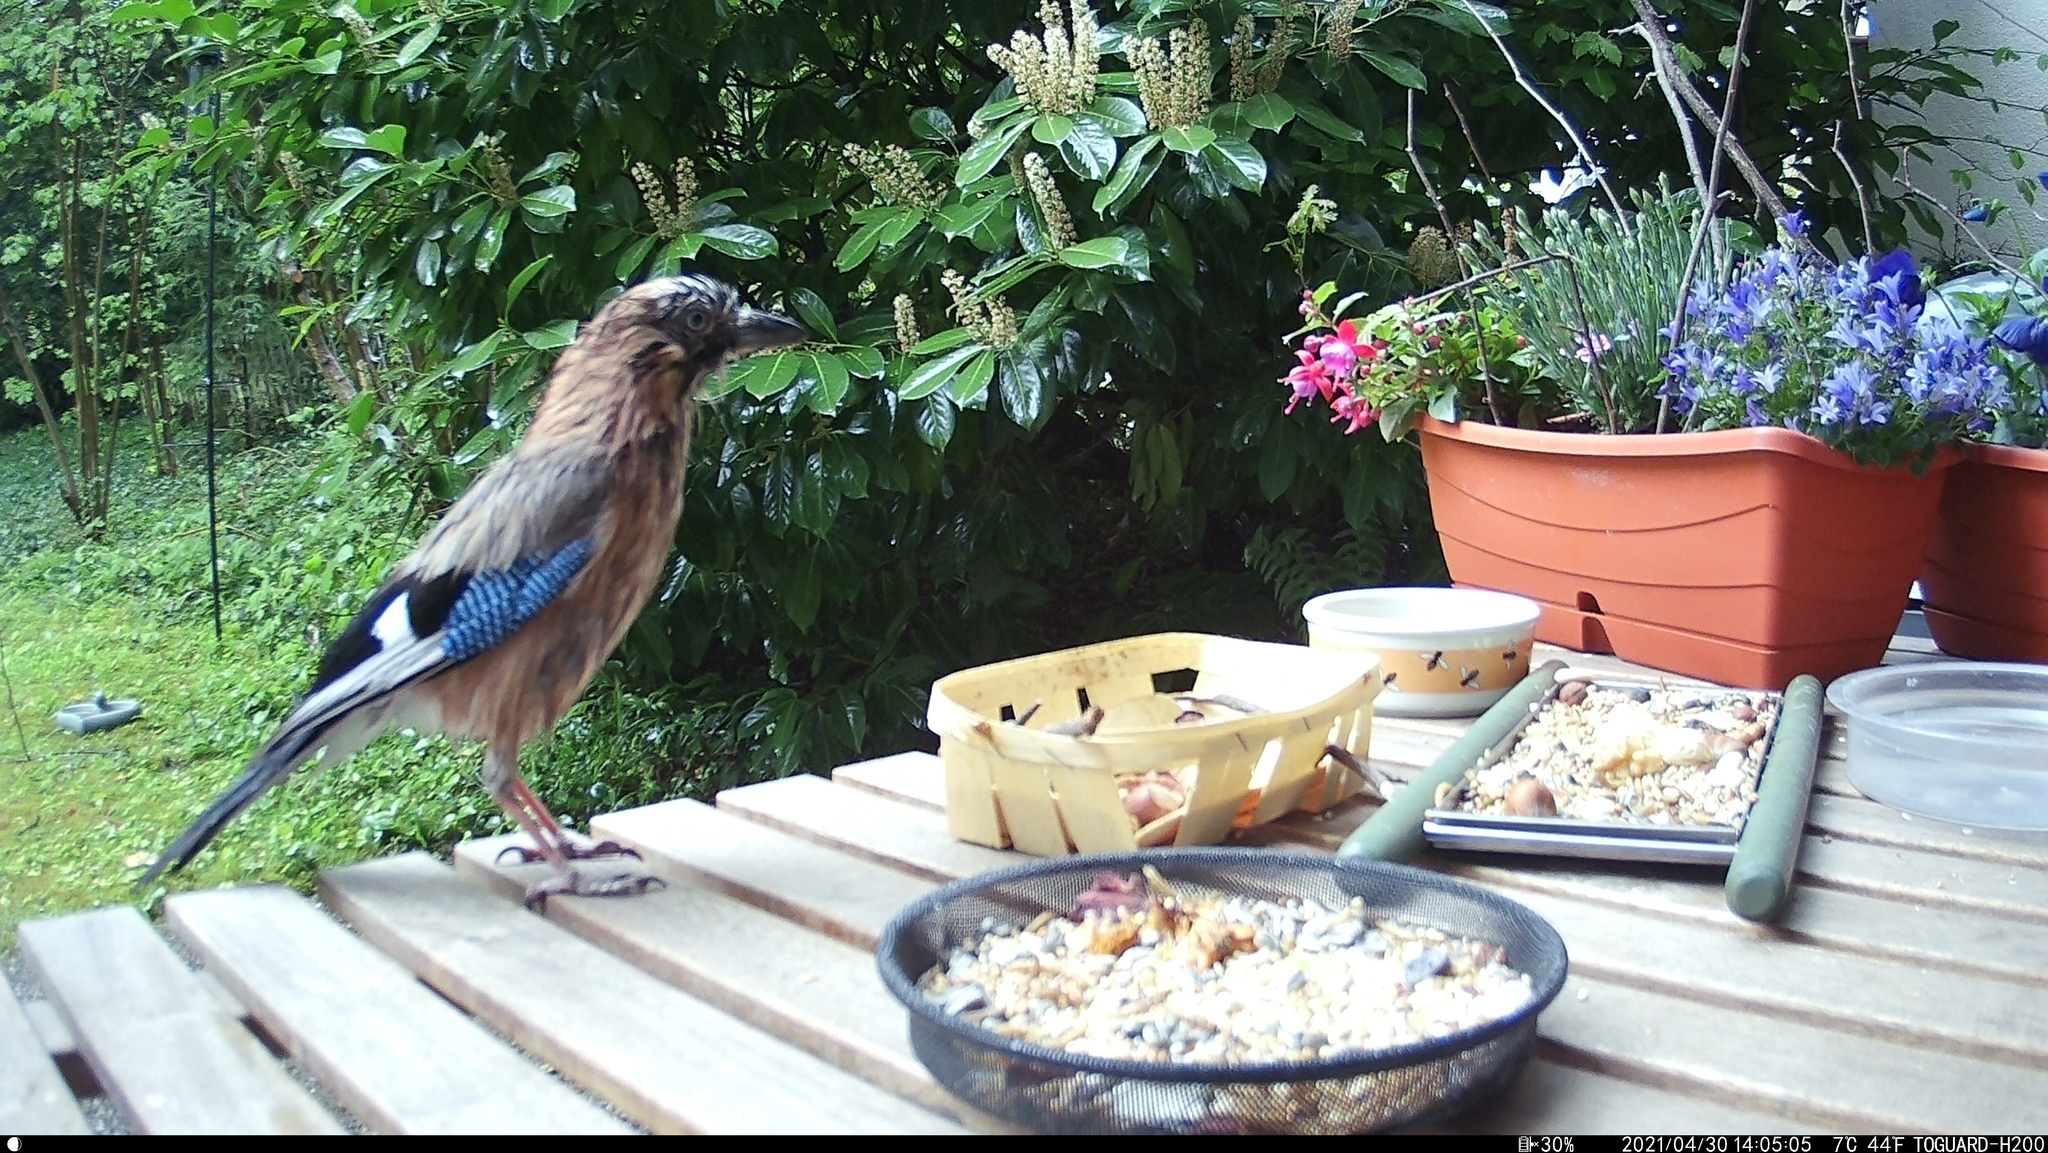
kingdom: Animalia
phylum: Chordata
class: Aves
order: Passeriformes
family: Corvidae
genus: Garrulus
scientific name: Garrulus glandarius
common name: Eurasian jay
